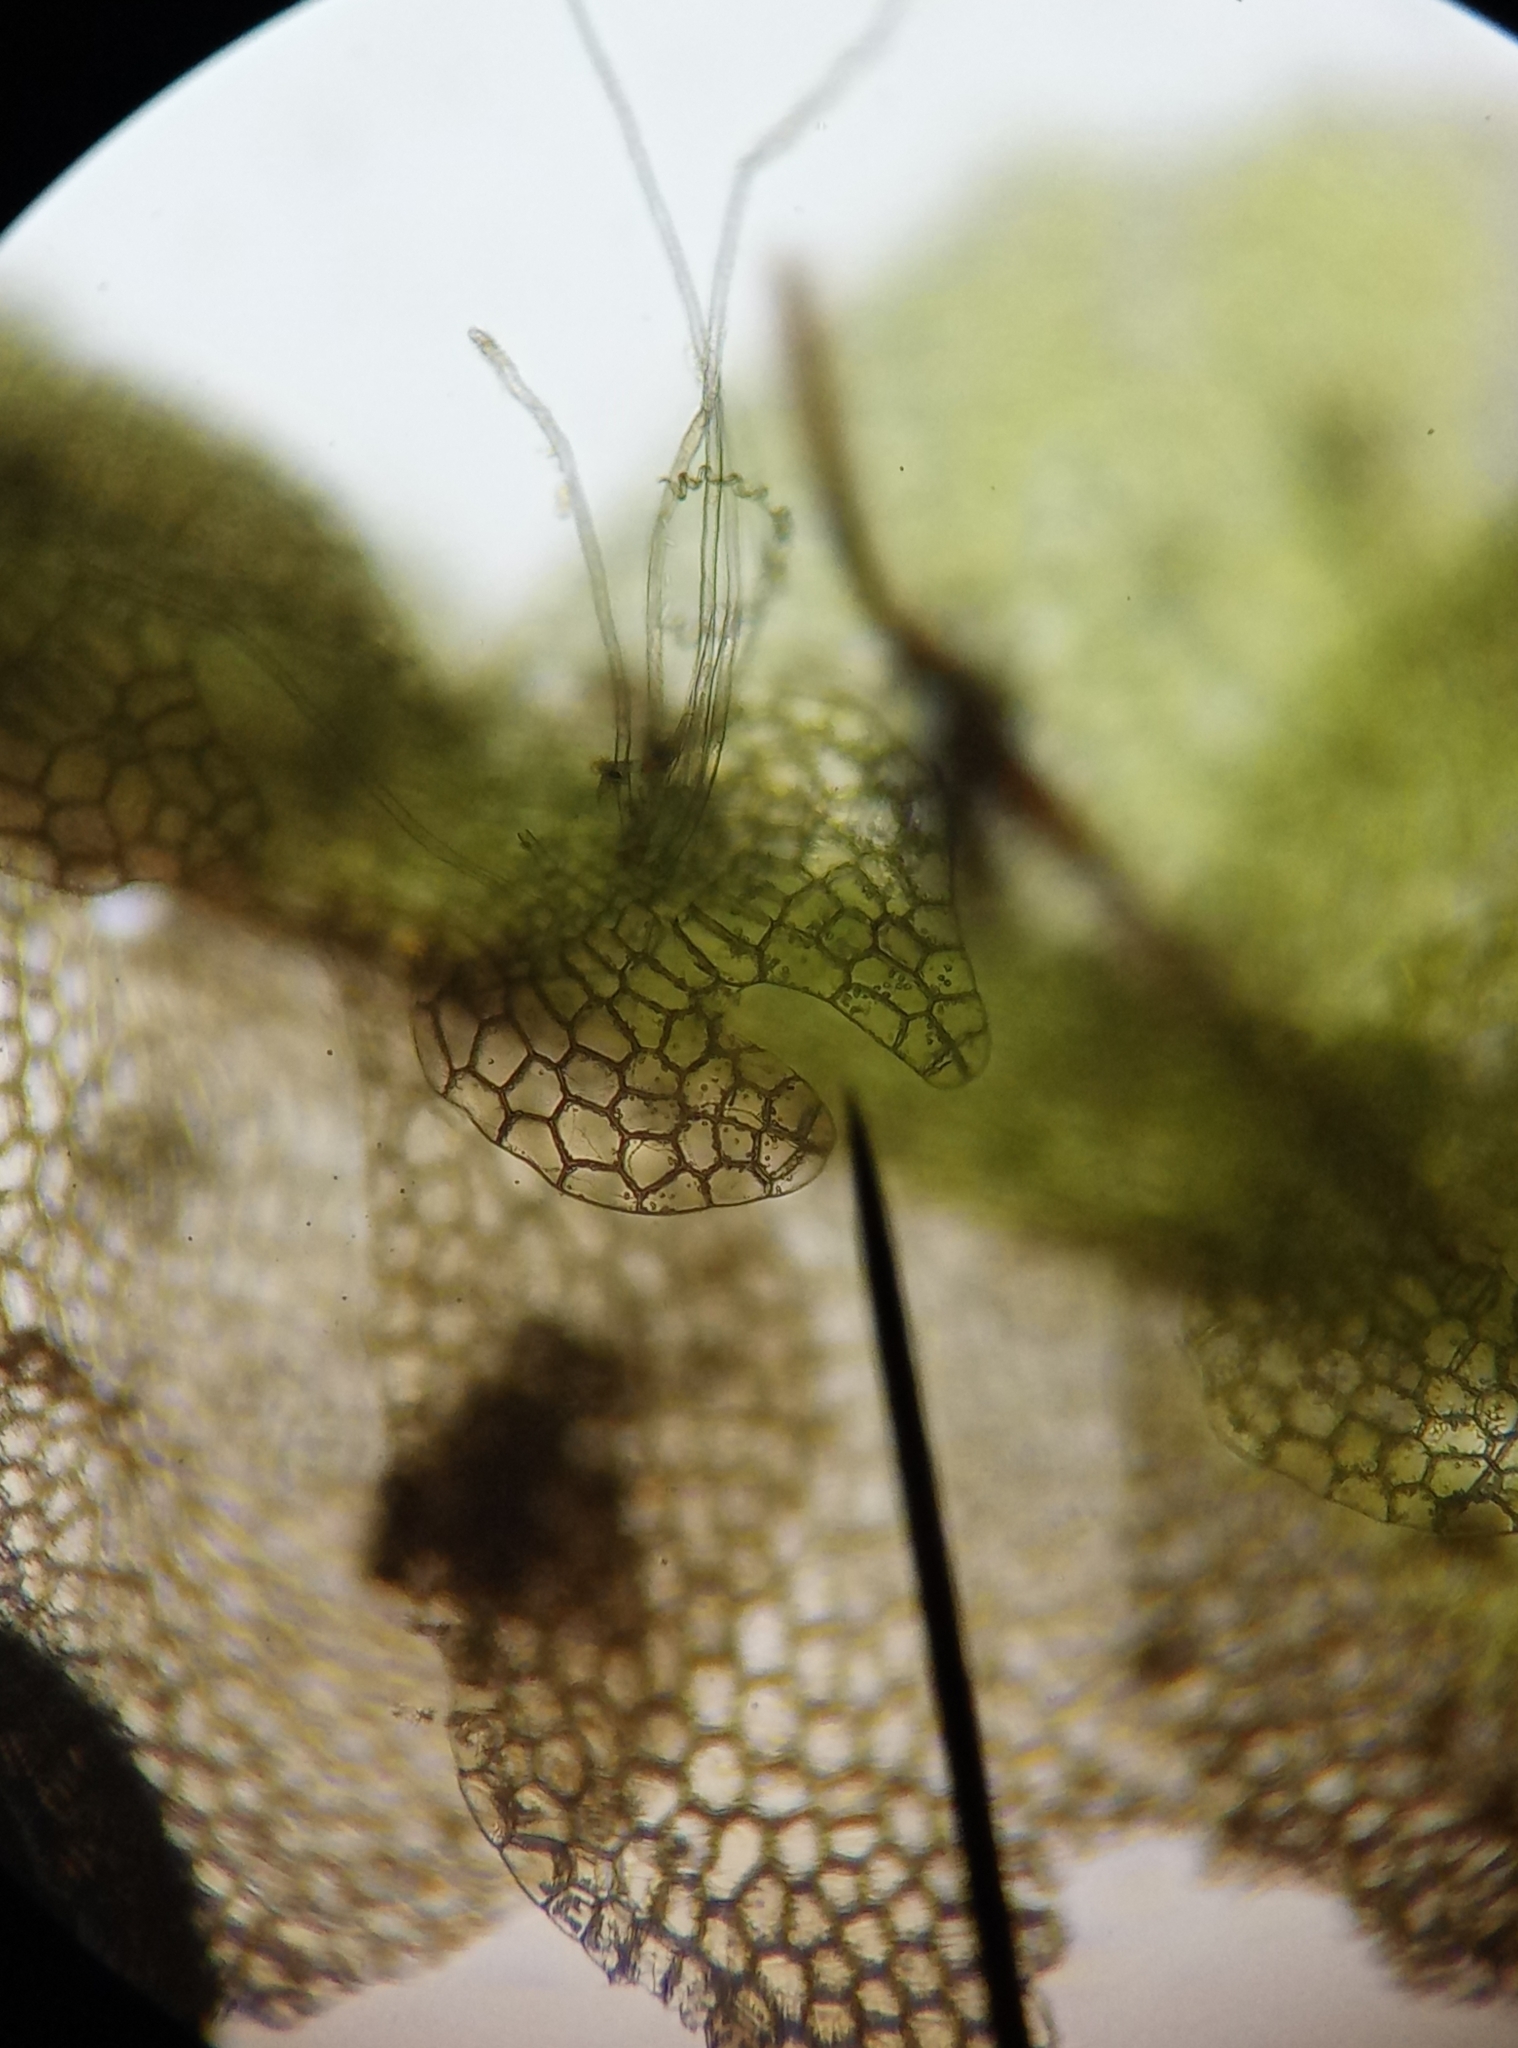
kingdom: Plantae
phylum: Marchantiophyta
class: Jungermanniopsida
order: Jungermanniales
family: Calypogeiaceae
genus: Calypogeia
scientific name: Calypogeia fissa
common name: Common pouchwort
